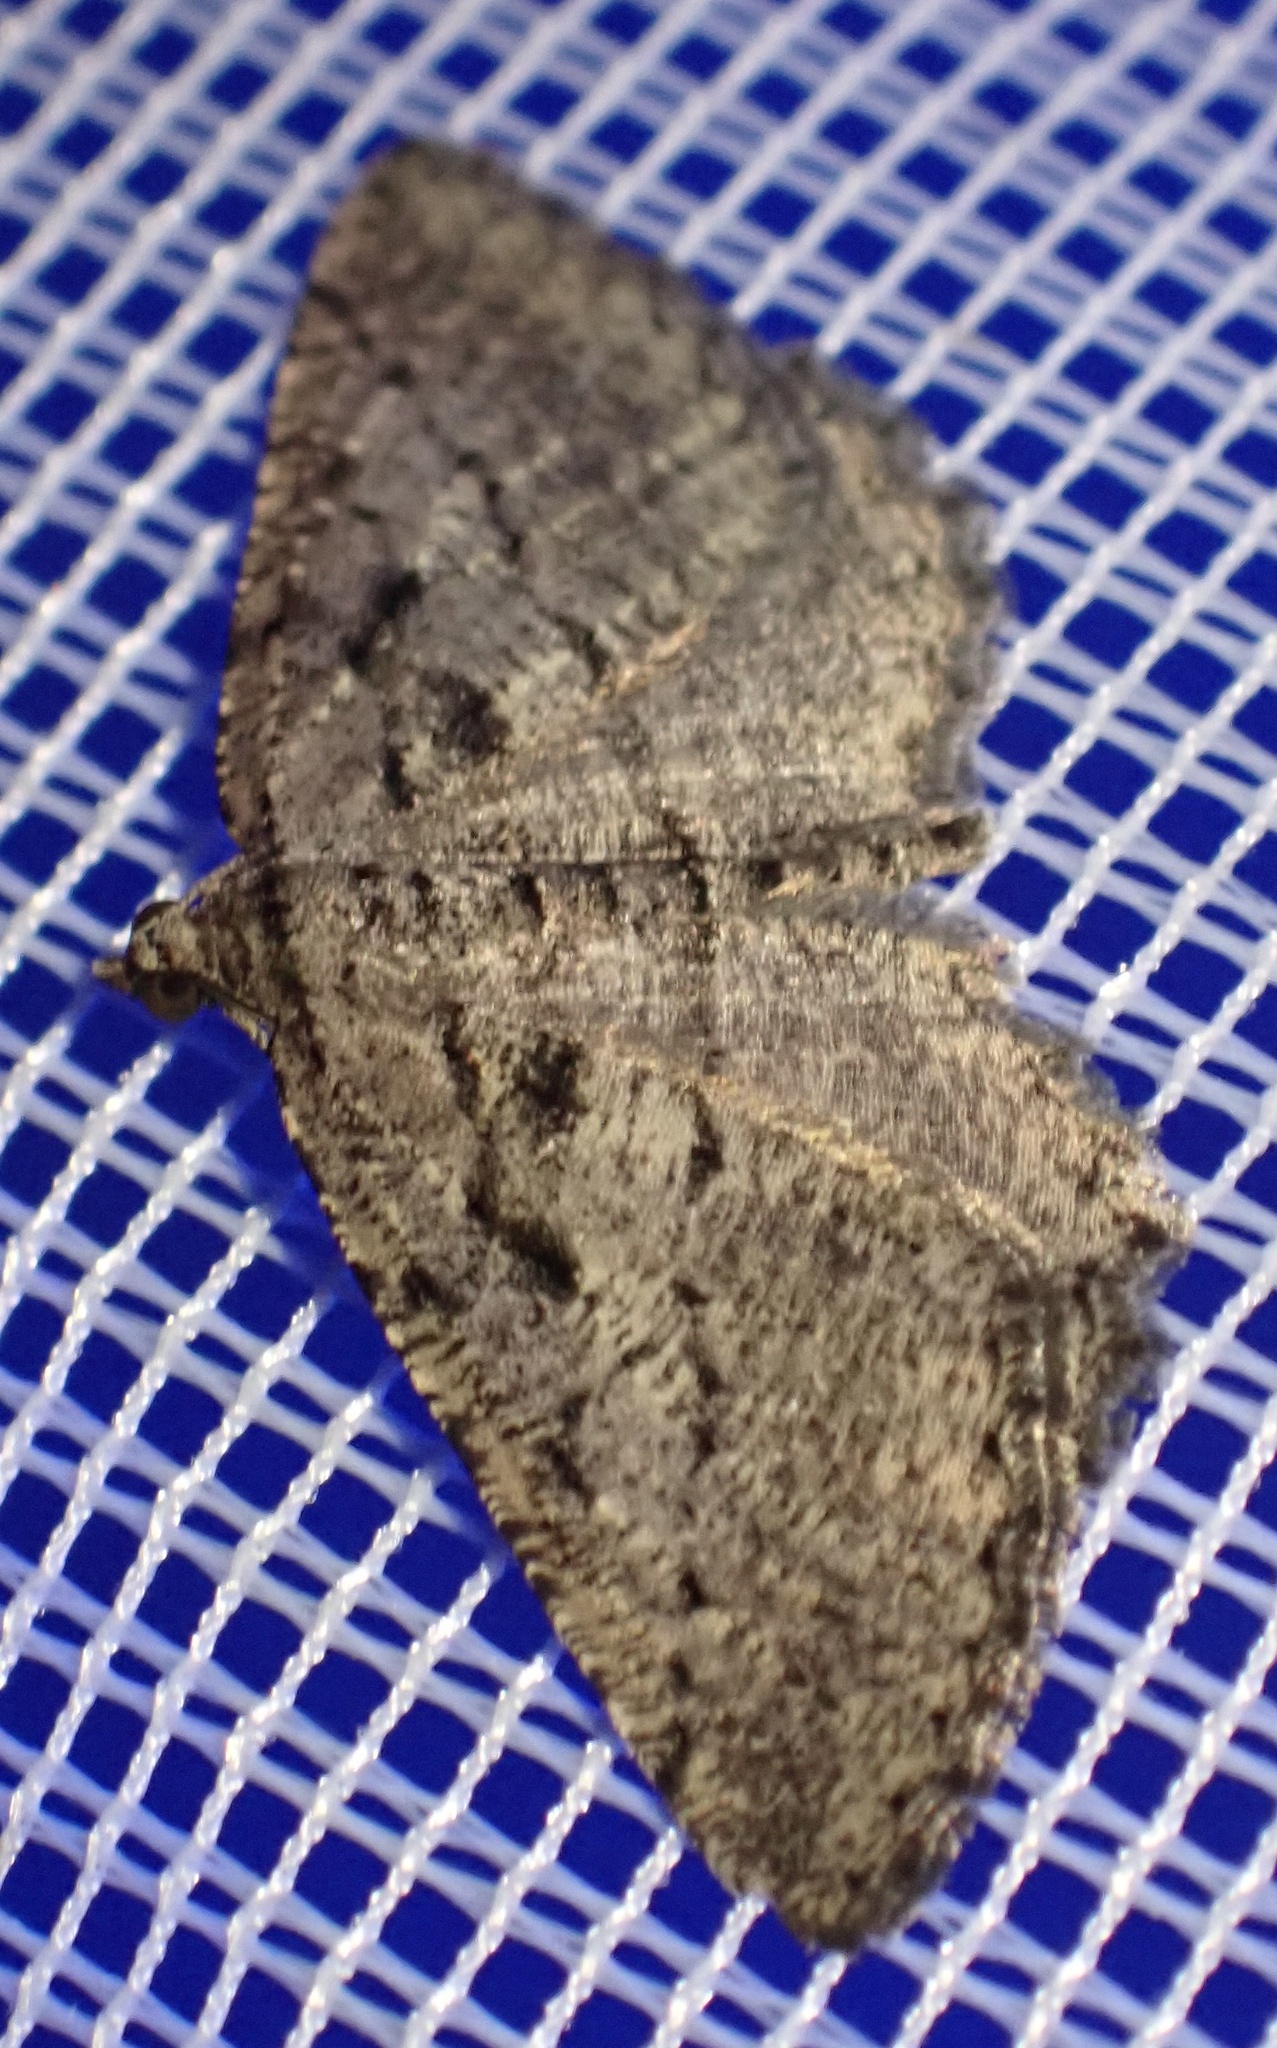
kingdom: Animalia
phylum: Arthropoda
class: Insecta
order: Lepidoptera
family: Geometridae
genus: Rhoptria
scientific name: Rhoptria asperaria
